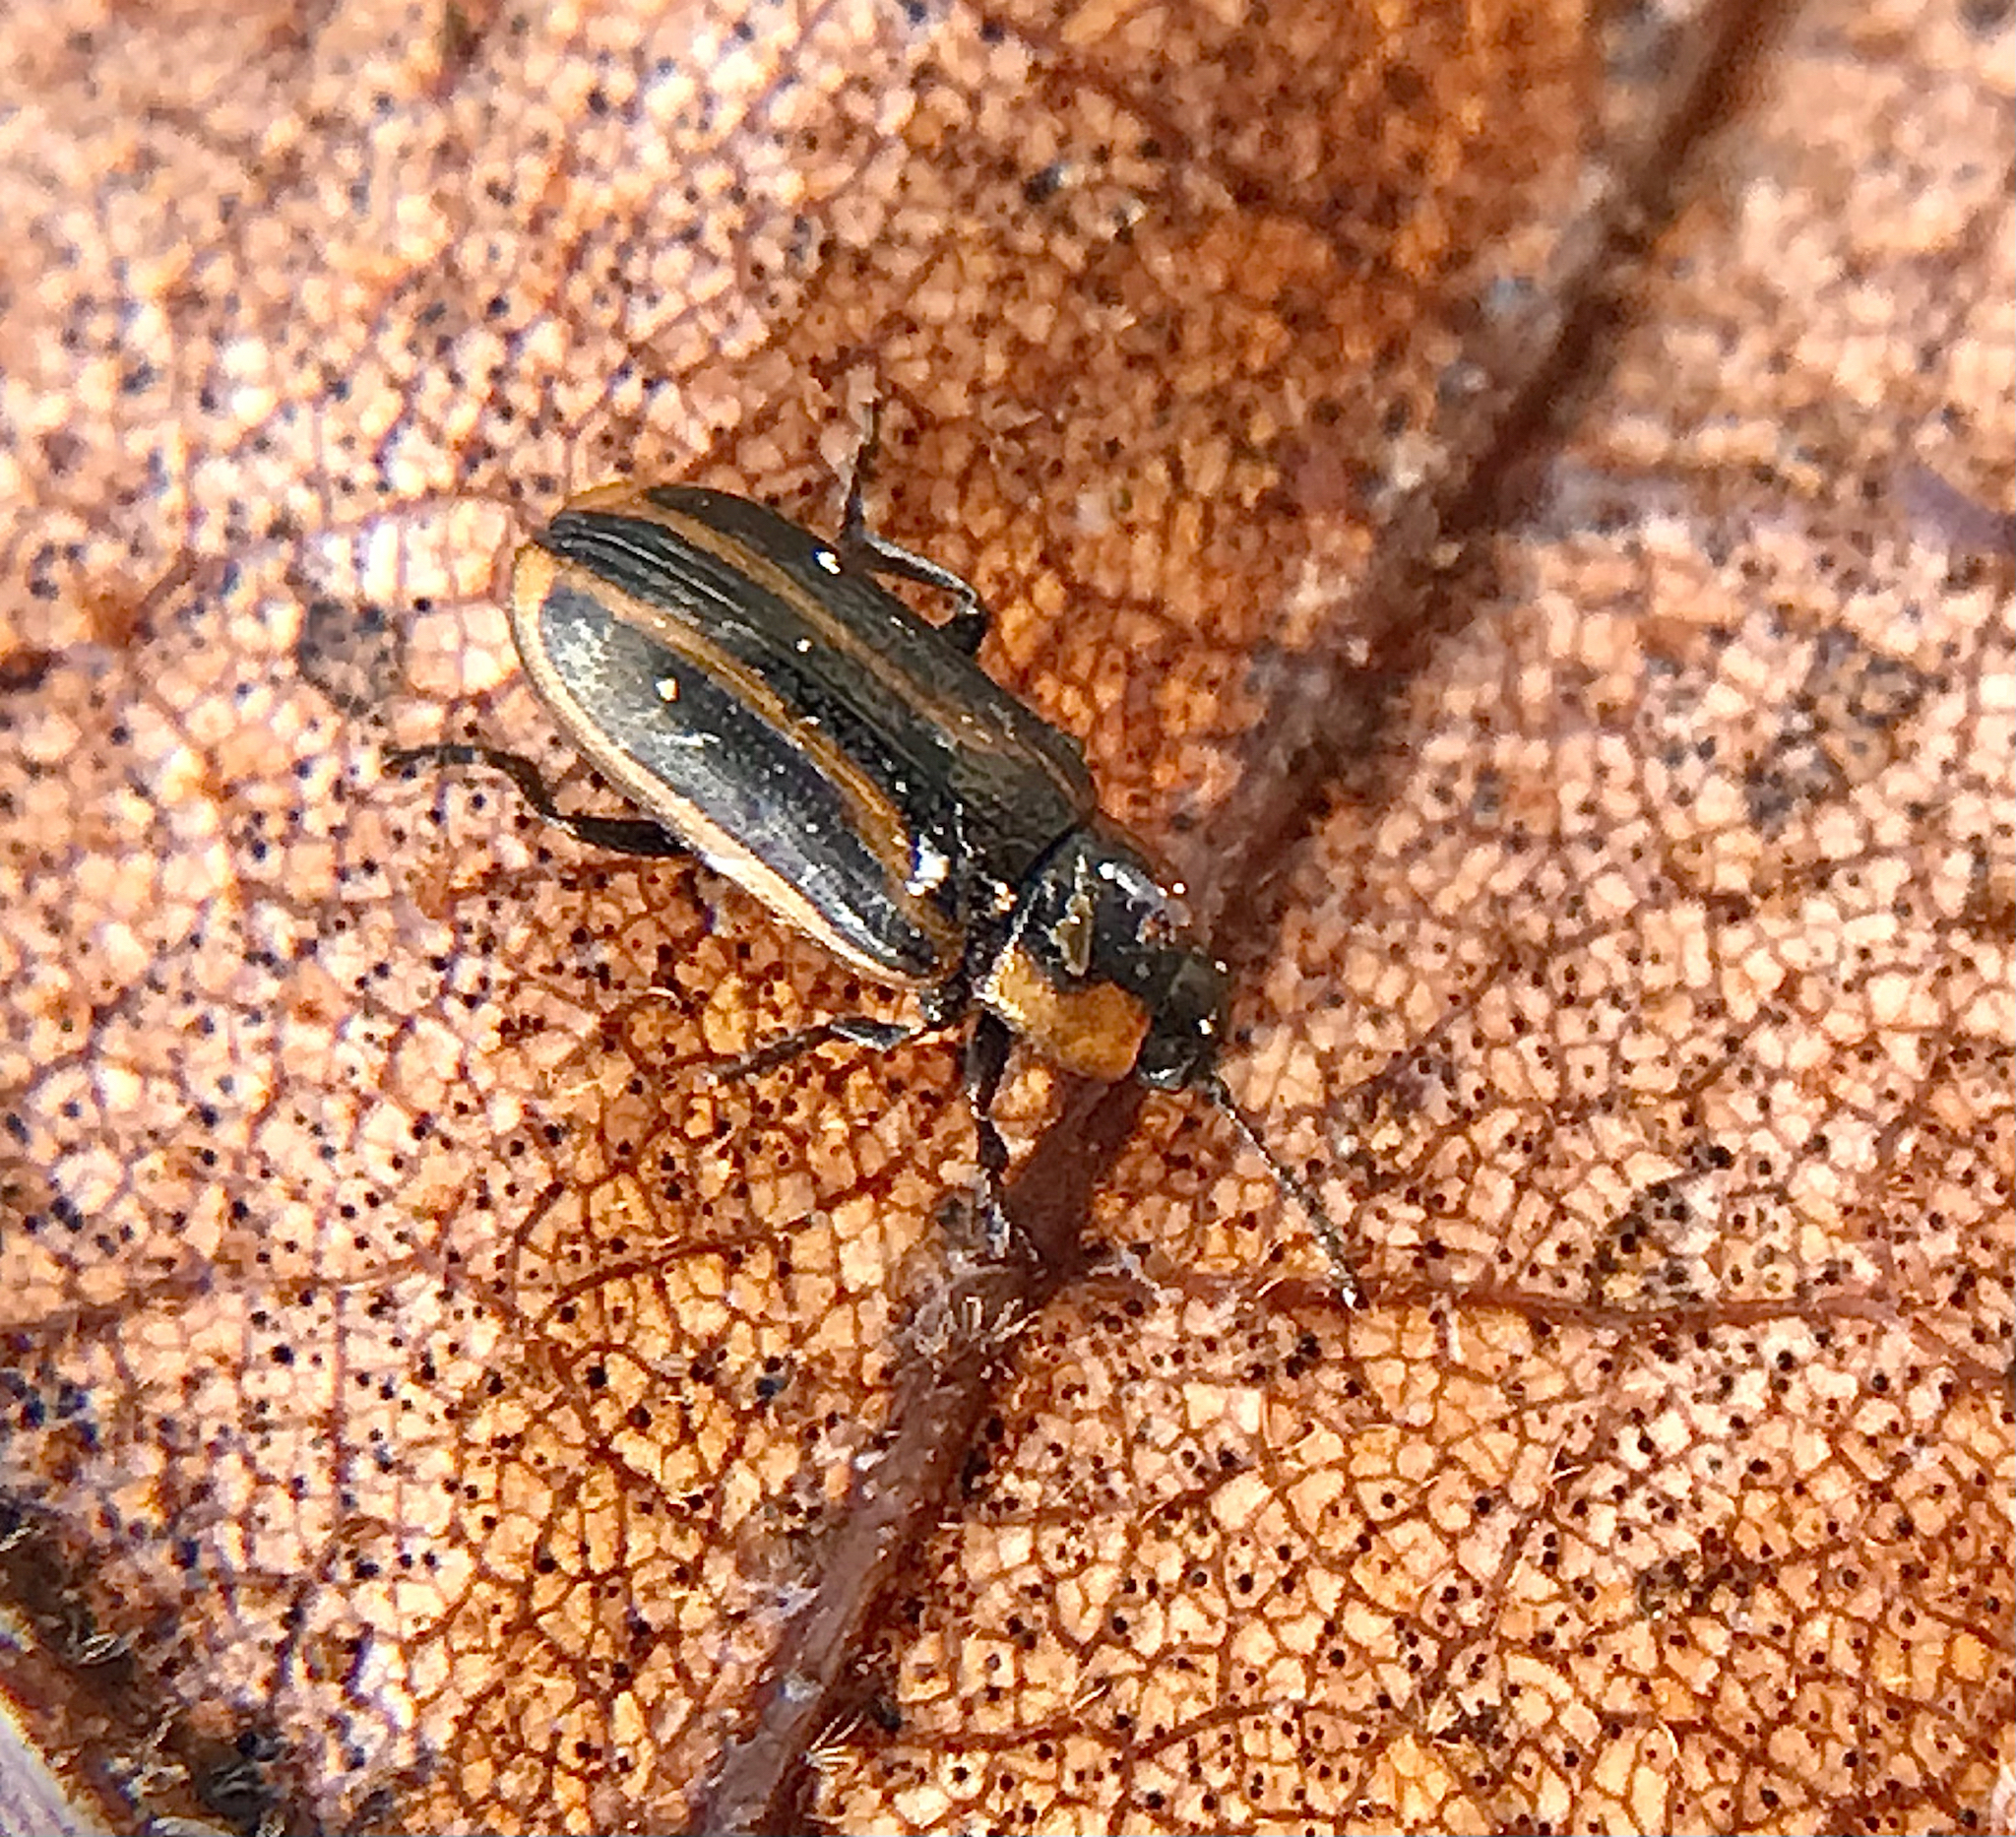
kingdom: Animalia
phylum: Arthropoda
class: Insecta
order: Coleoptera
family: Chrysomelidae
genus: Prasocuris
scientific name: Prasocuris vittata
